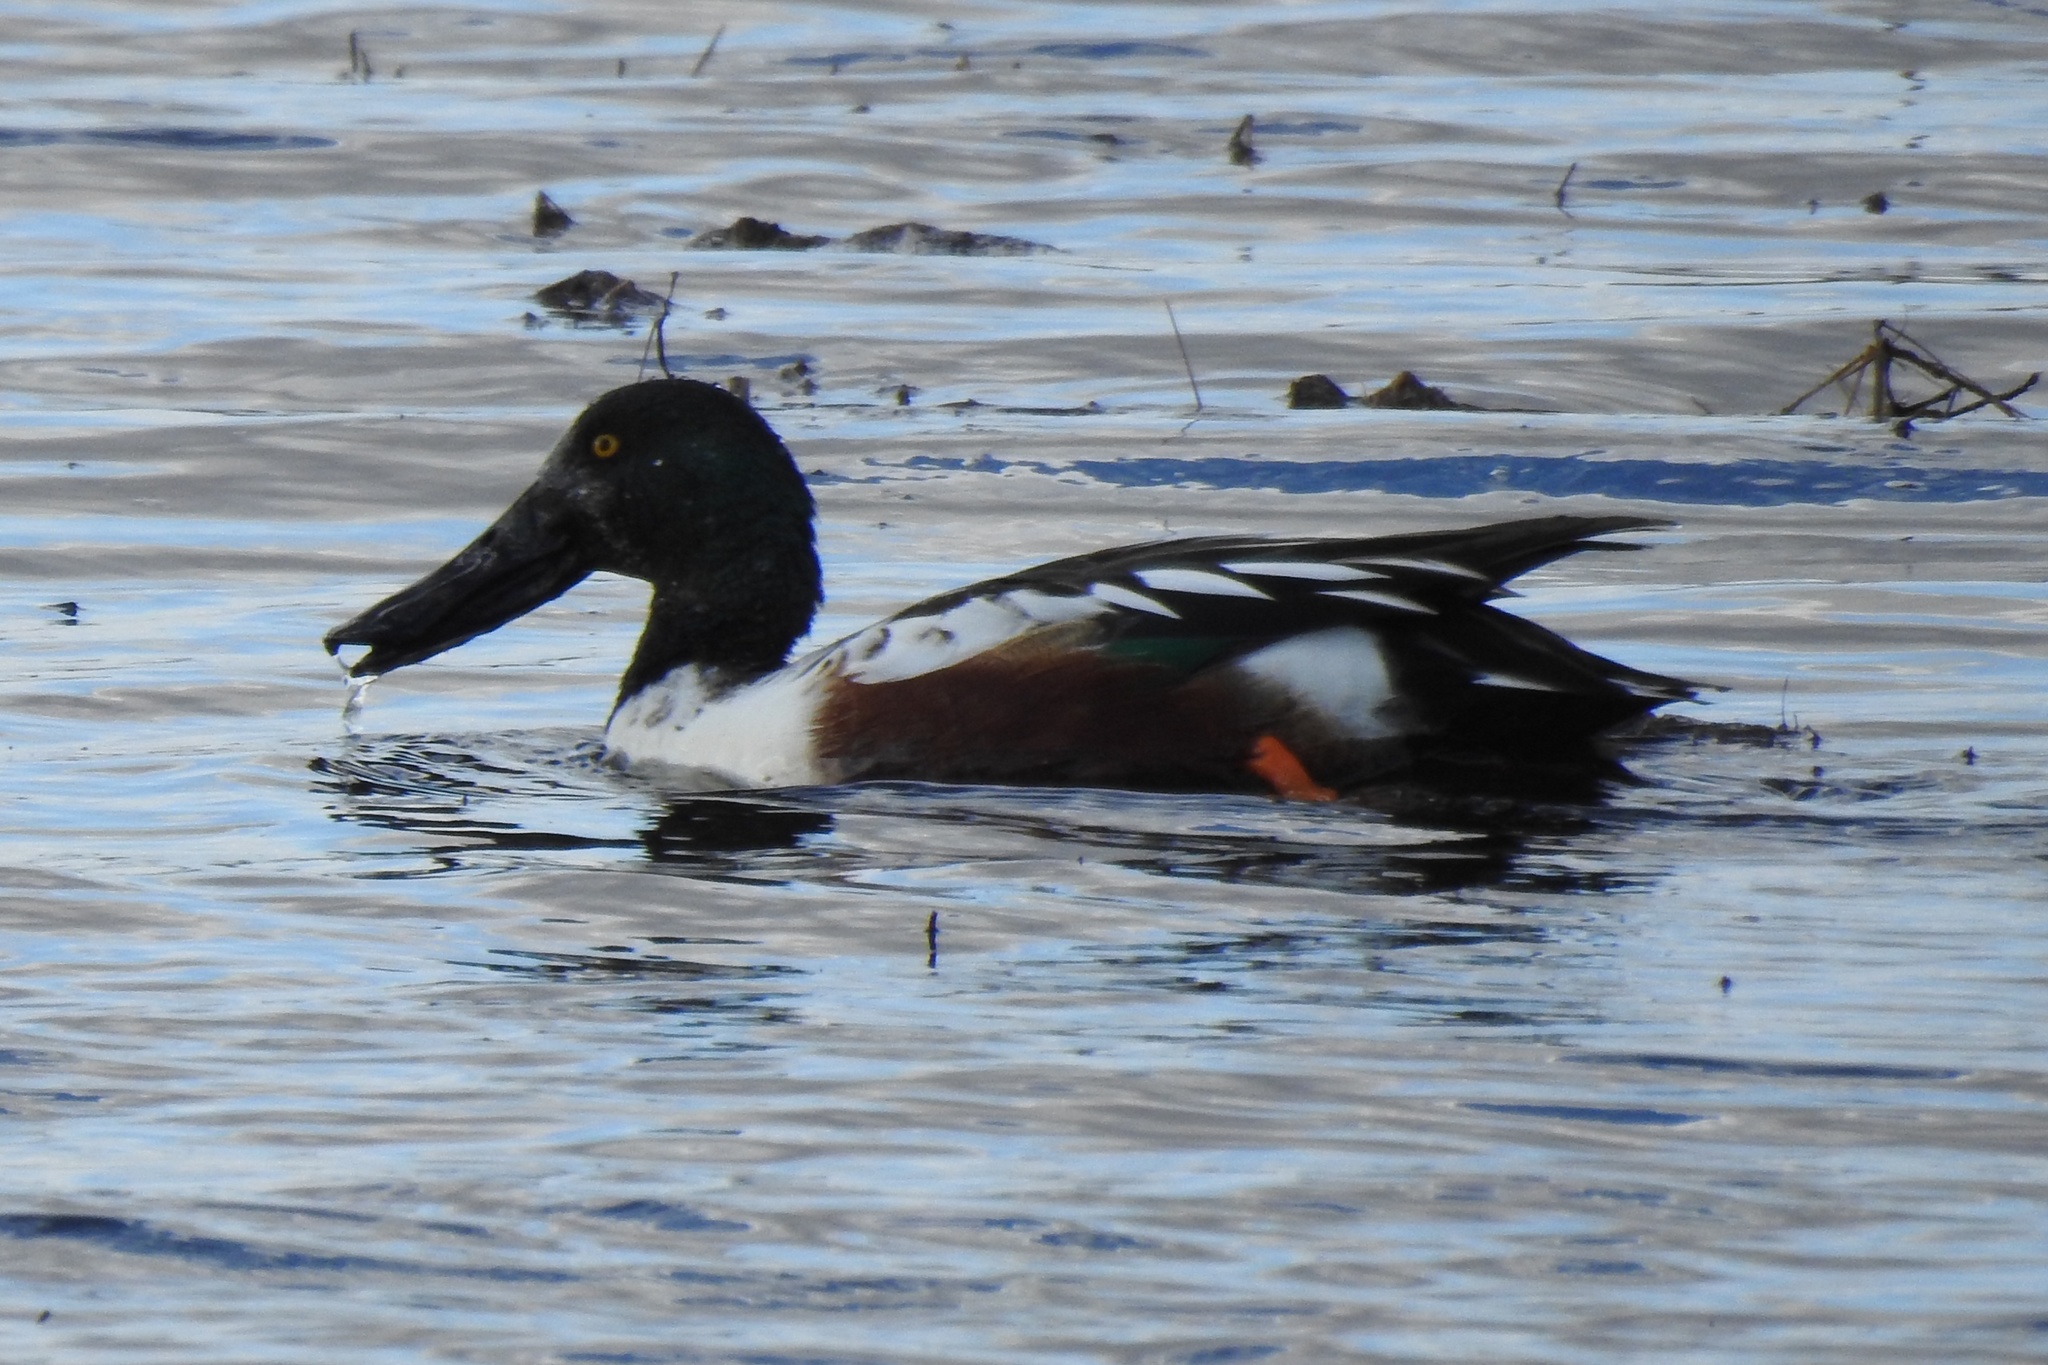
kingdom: Animalia
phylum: Chordata
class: Aves
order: Anseriformes
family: Anatidae
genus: Spatula
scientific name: Spatula clypeata
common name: Northern shoveler
